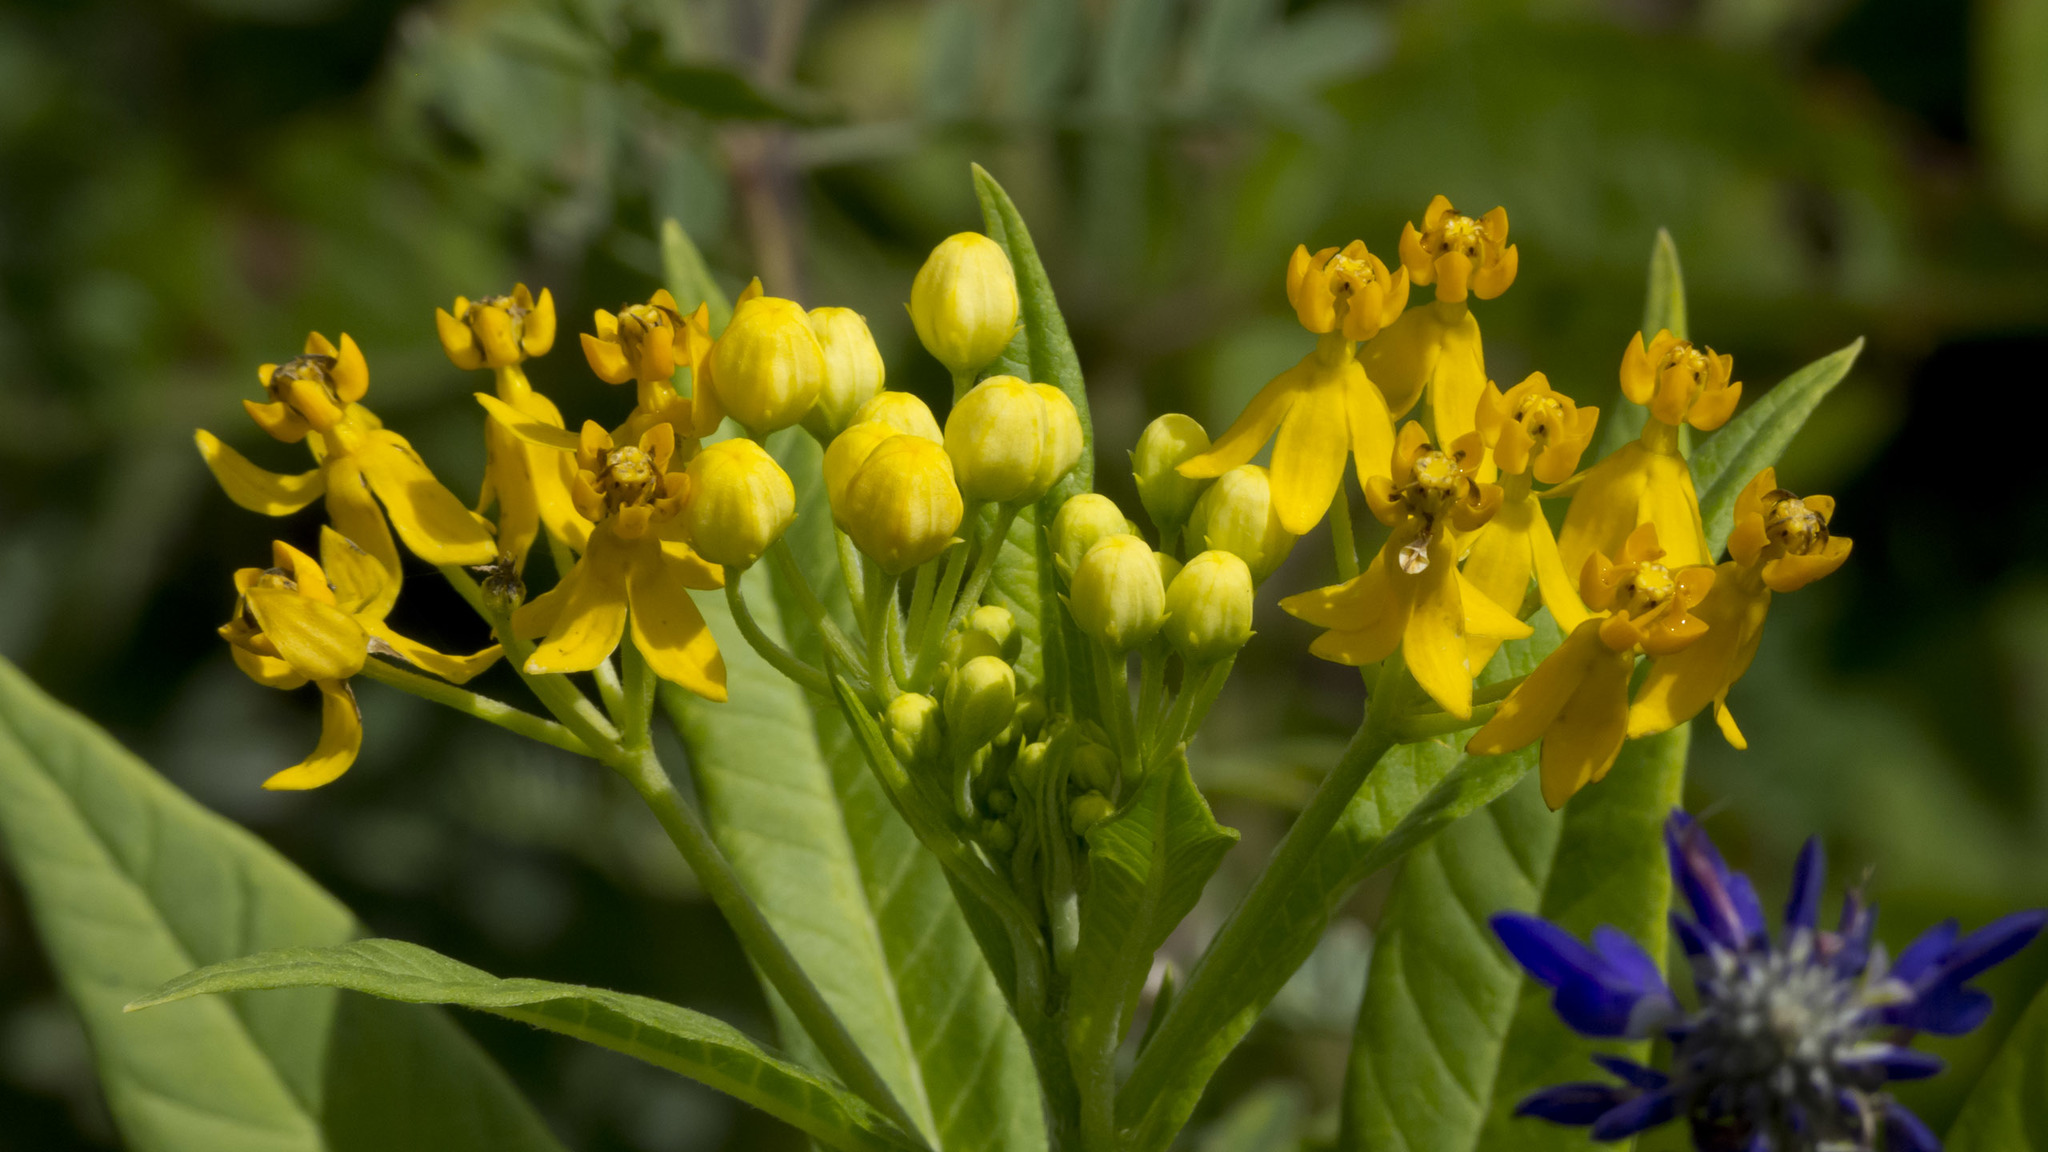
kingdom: Plantae
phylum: Tracheophyta
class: Magnoliopsida
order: Gentianales
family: Apocynaceae
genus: Asclepias
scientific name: Asclepias curassavica
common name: Bloodflower
